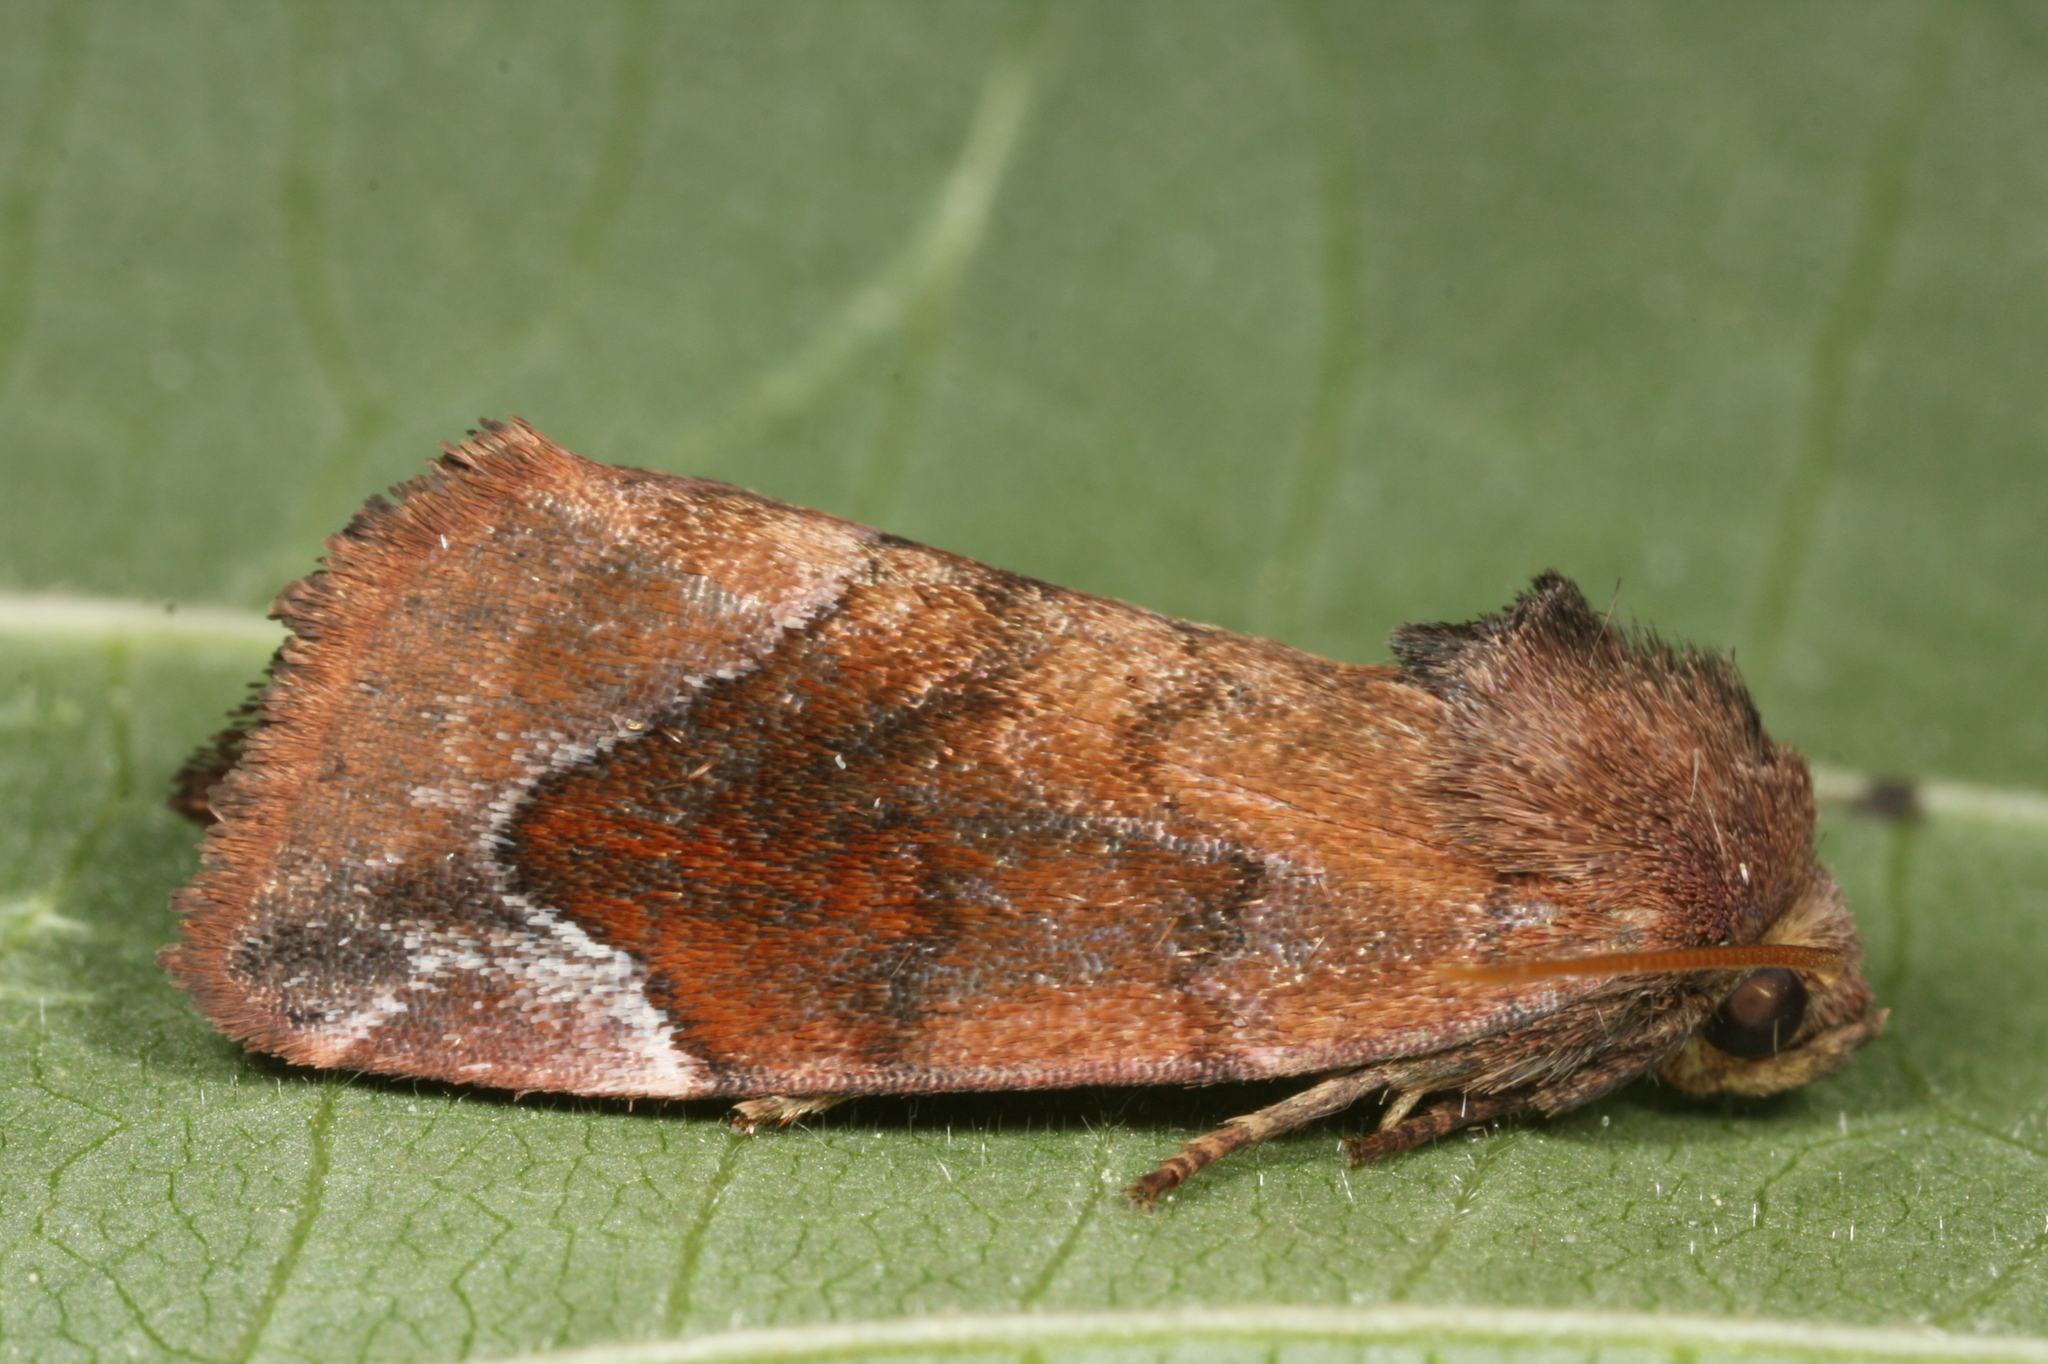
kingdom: Animalia
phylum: Arthropoda
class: Insecta
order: Lepidoptera
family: Noctuidae
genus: Cosmia
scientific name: Cosmia pyralina
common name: Lunar-spotted pinion
